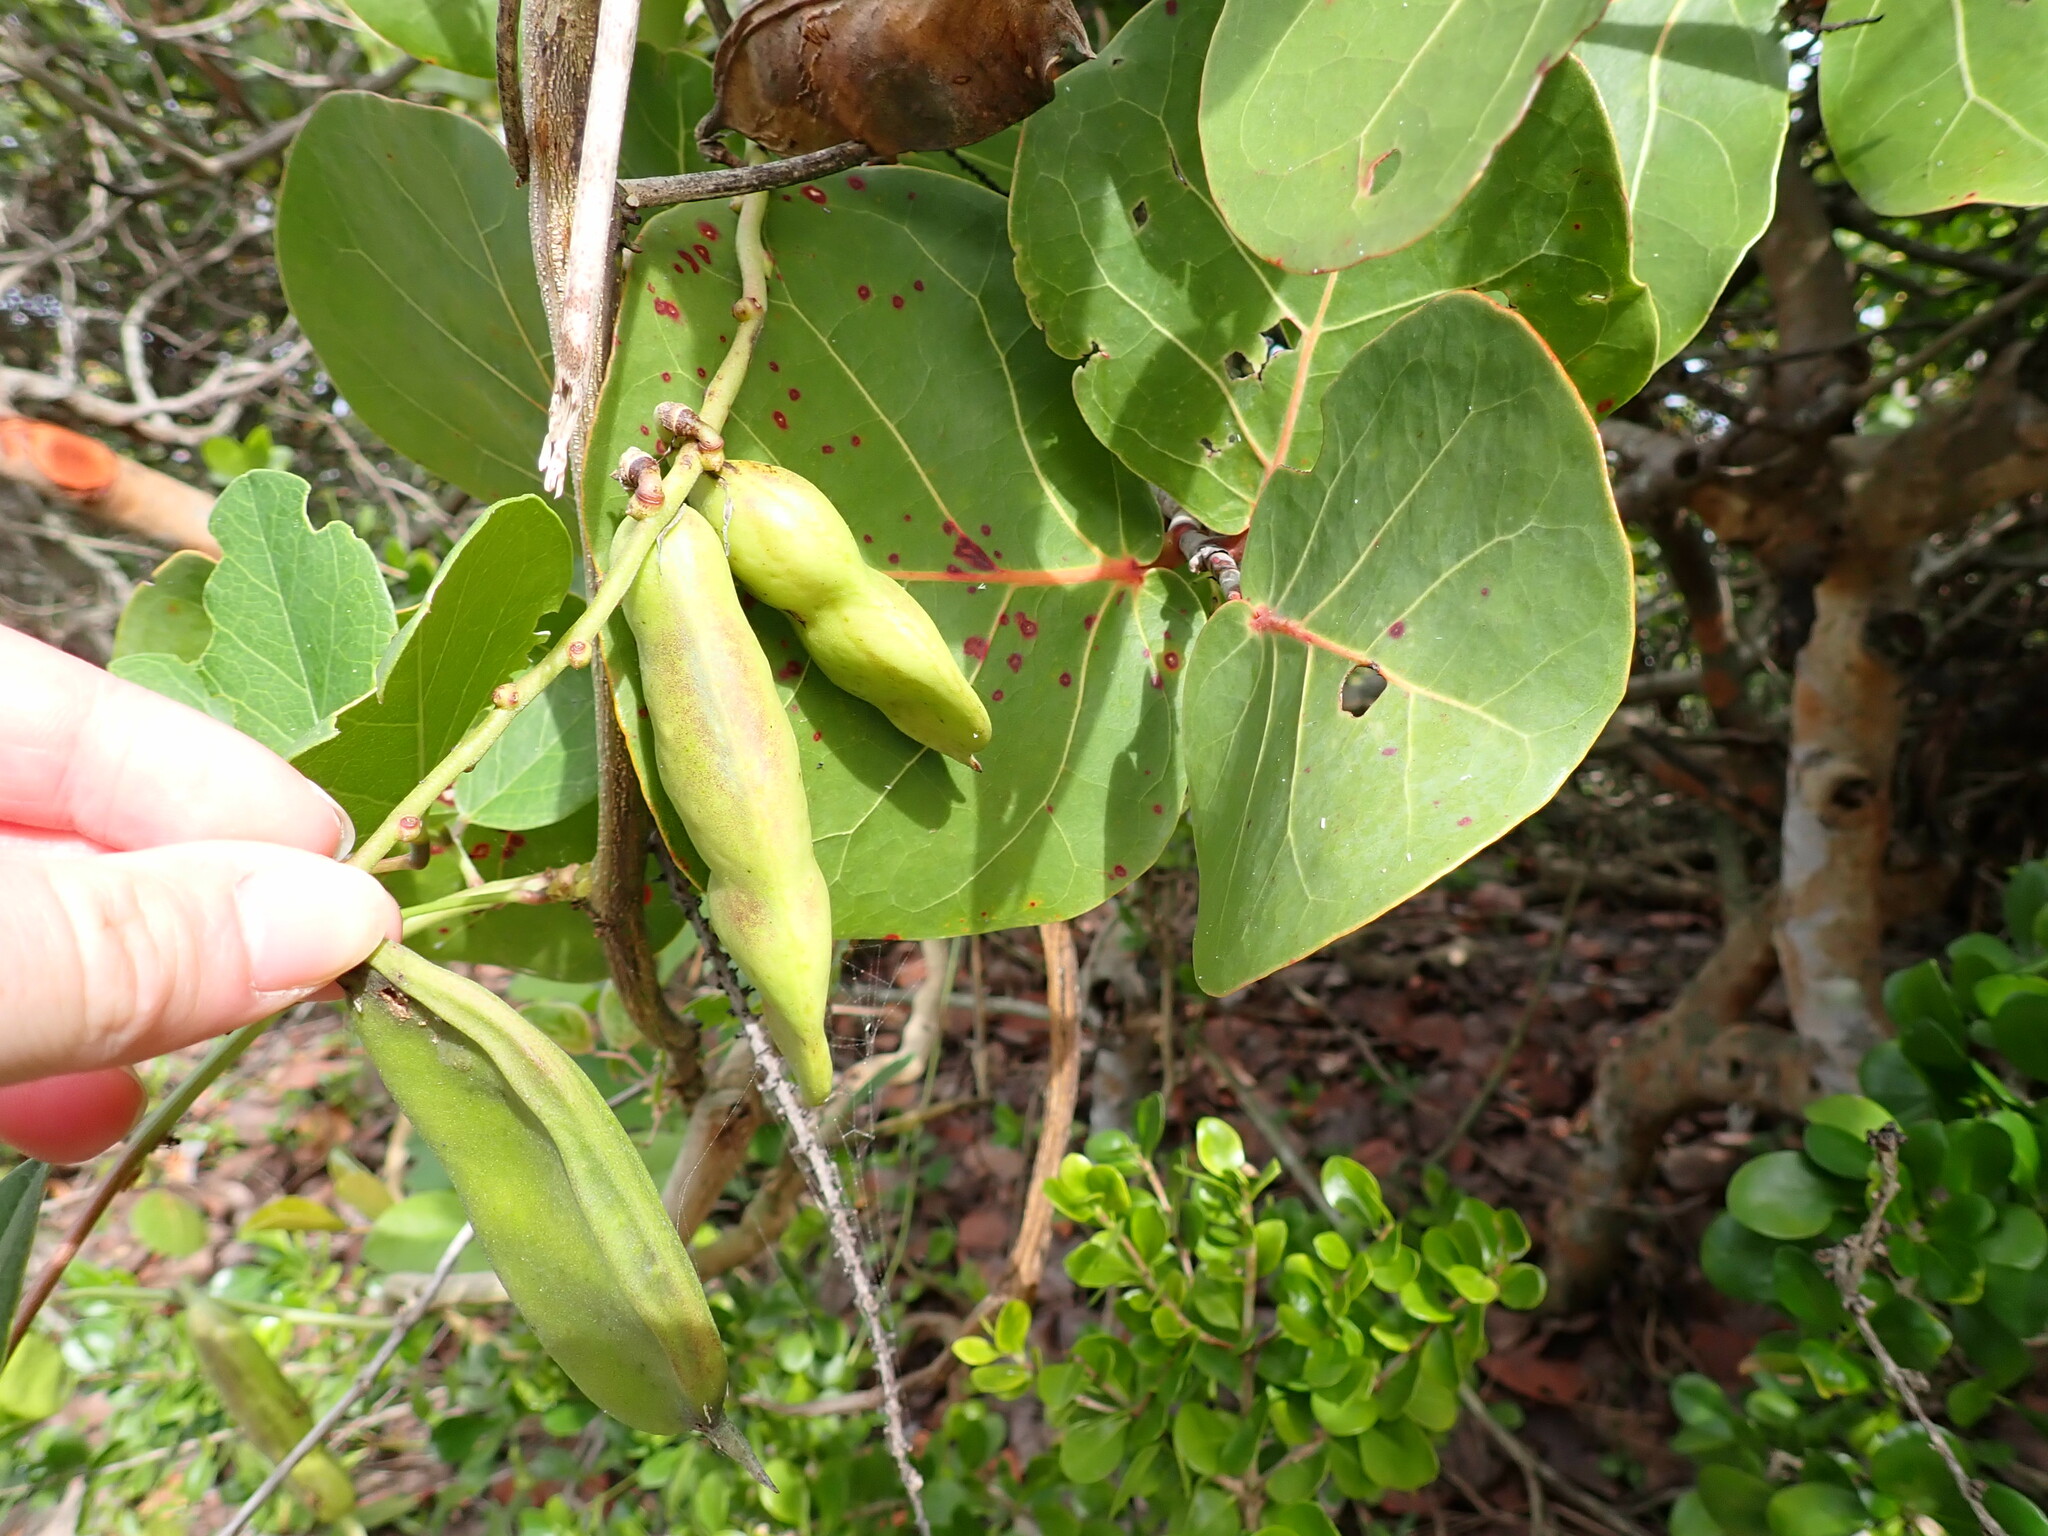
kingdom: Plantae
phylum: Tracheophyta
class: Magnoliopsida
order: Fabales
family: Fabaceae
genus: Canavalia
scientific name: Canavalia rosea
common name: Beach-bean
